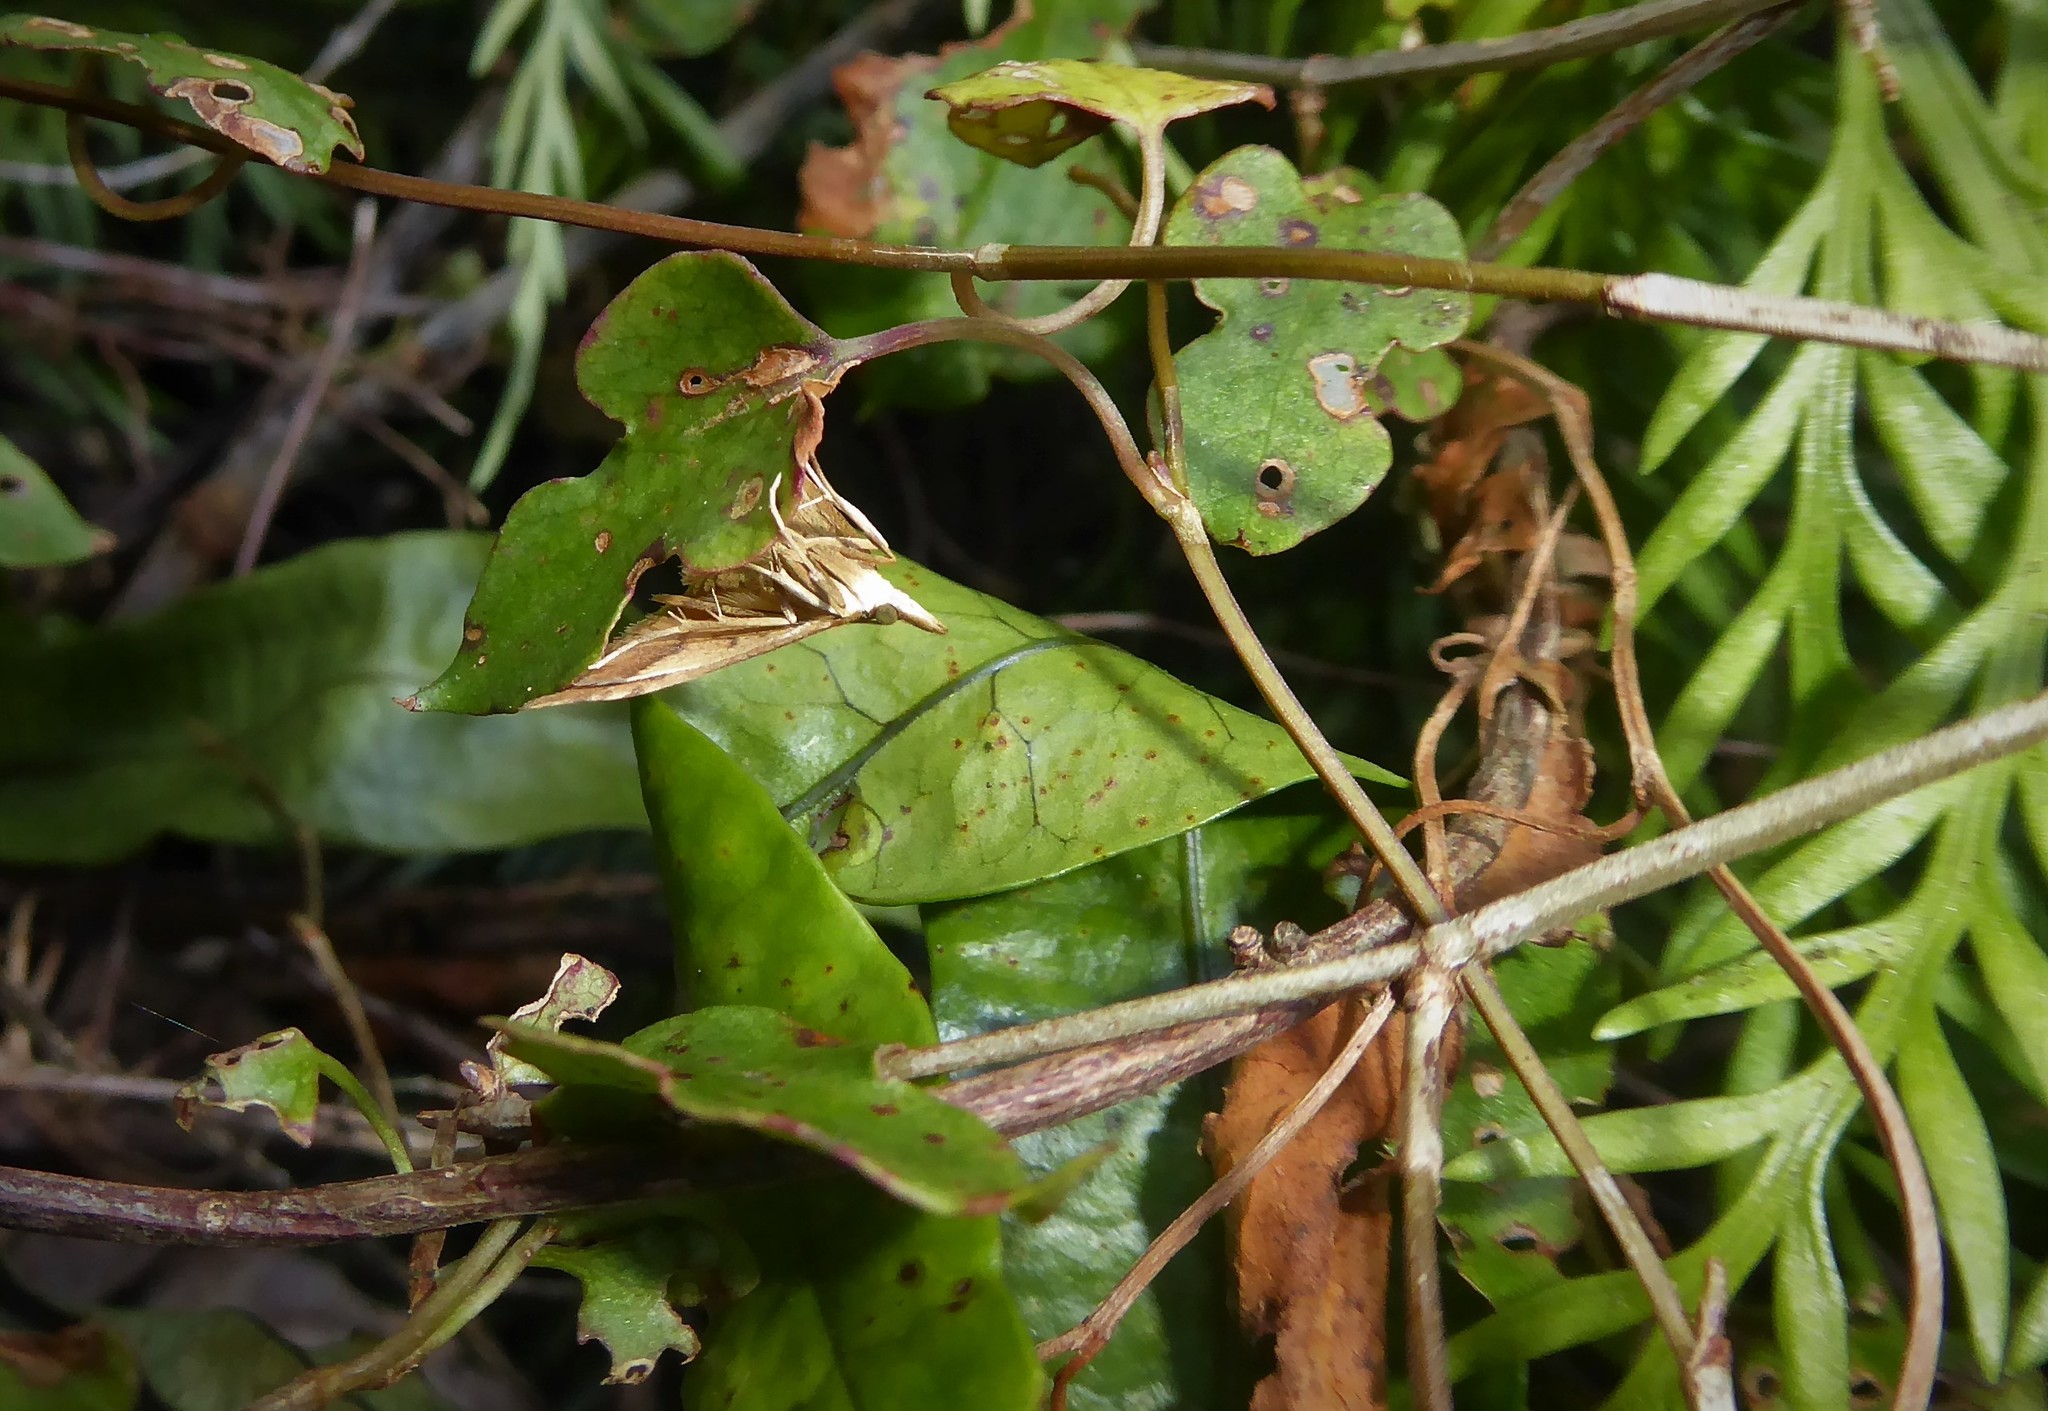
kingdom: Animalia
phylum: Arthropoda
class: Insecta
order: Lepidoptera
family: Crambidae
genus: Udea
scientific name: Udea Mnesictena flavidalis
